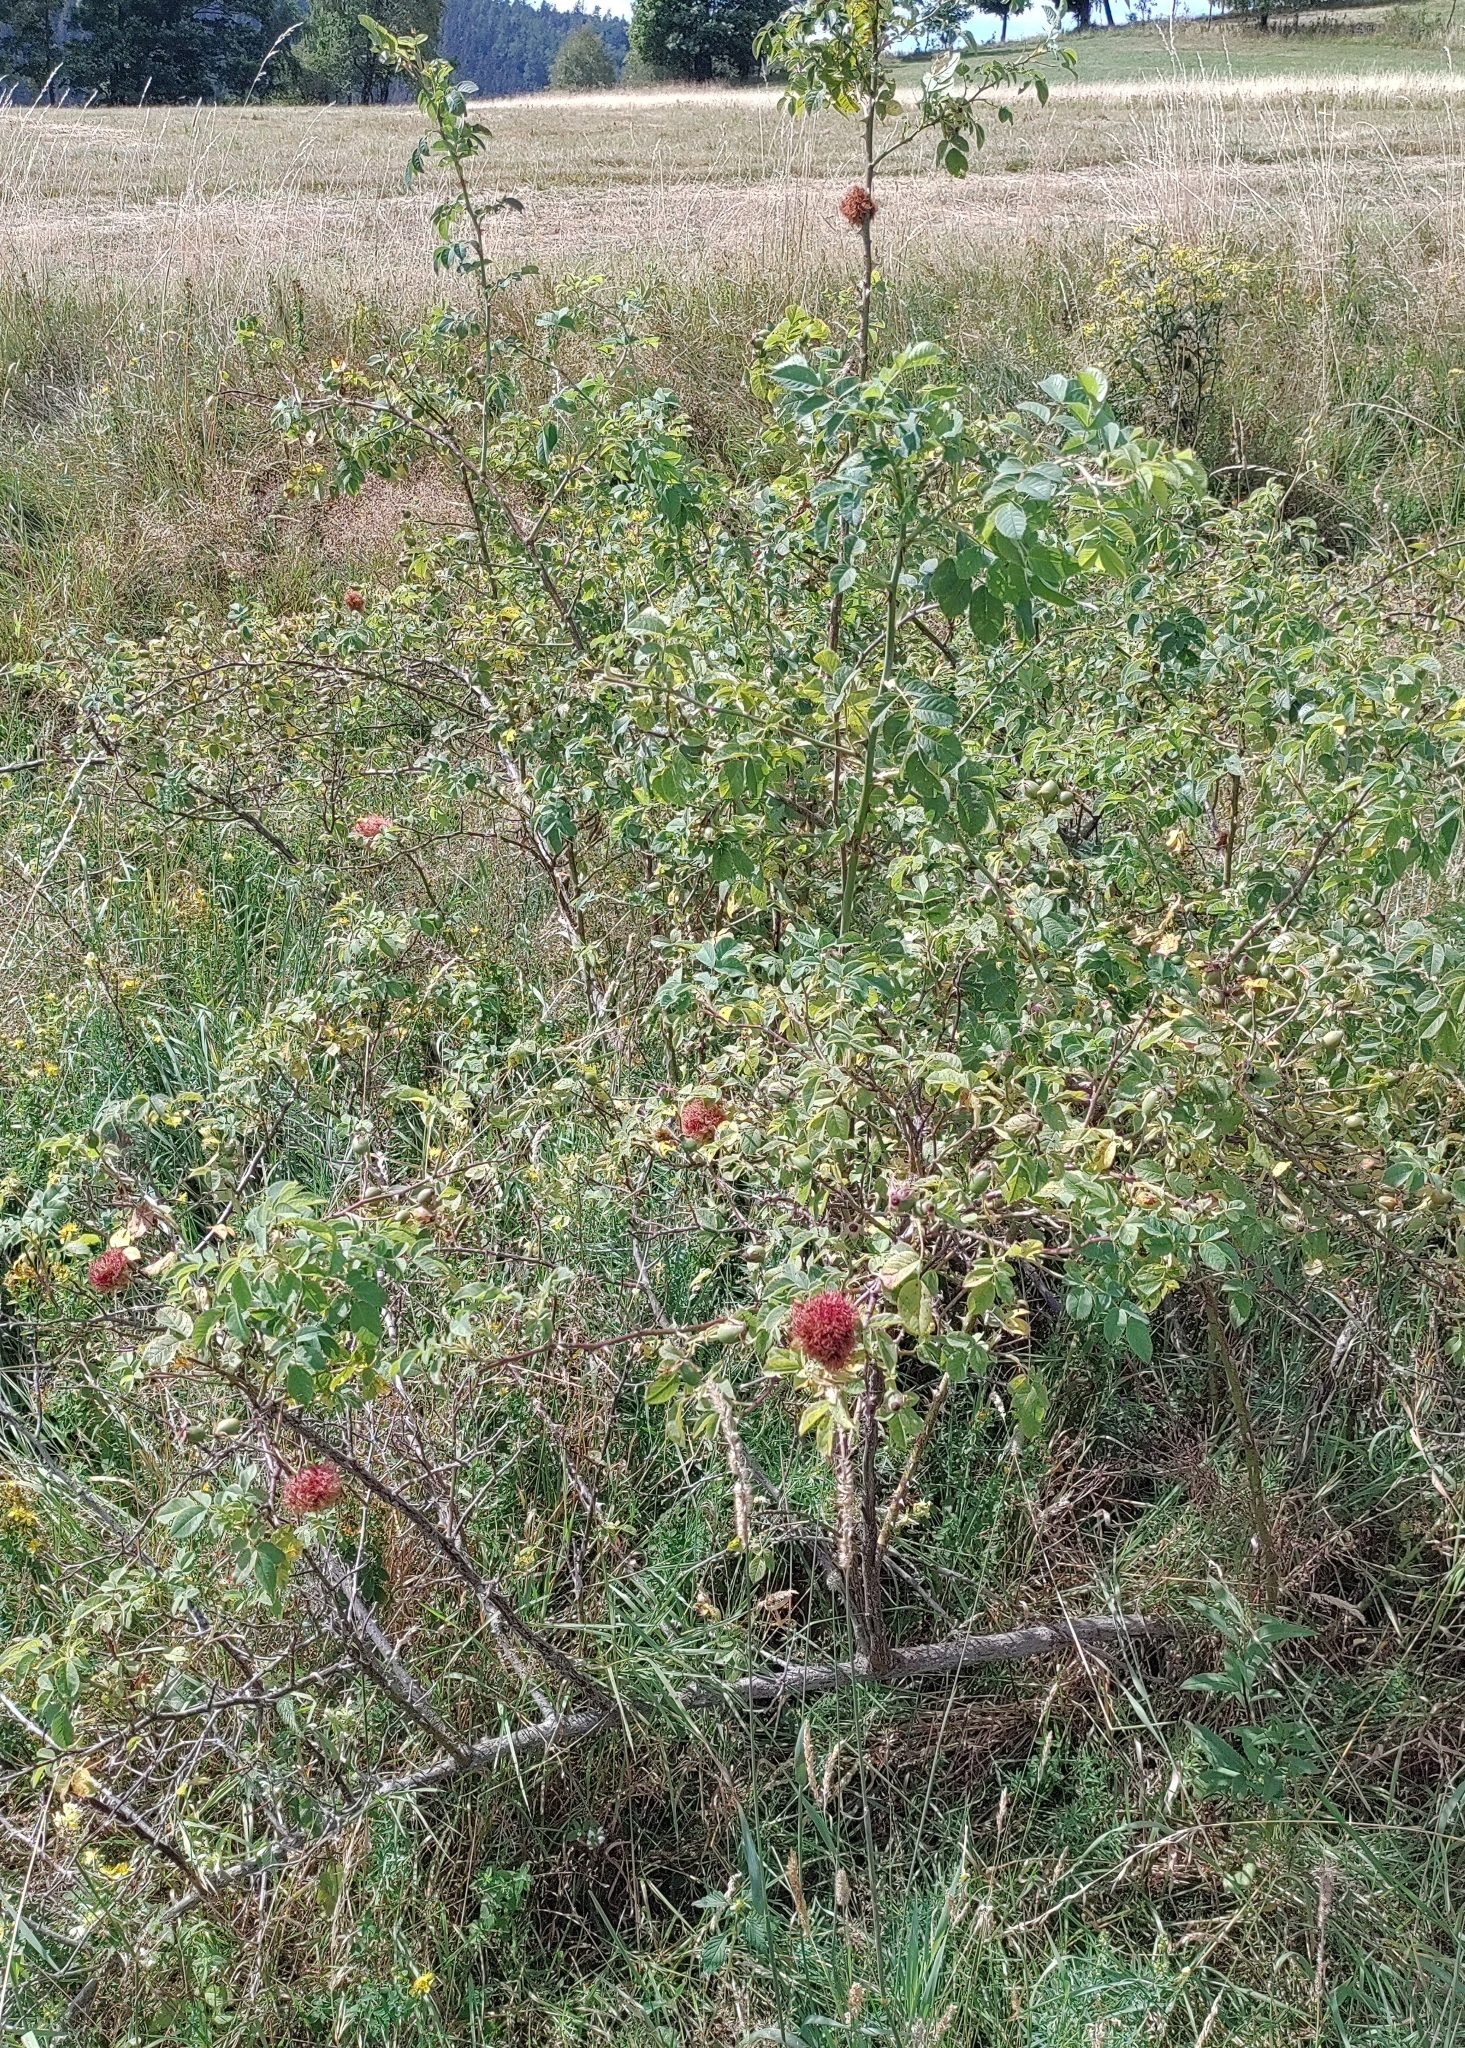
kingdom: Animalia
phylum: Arthropoda
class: Insecta
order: Hymenoptera
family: Cynipidae
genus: Diplolepis
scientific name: Diplolepis rosae
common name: Bedeguar gall
